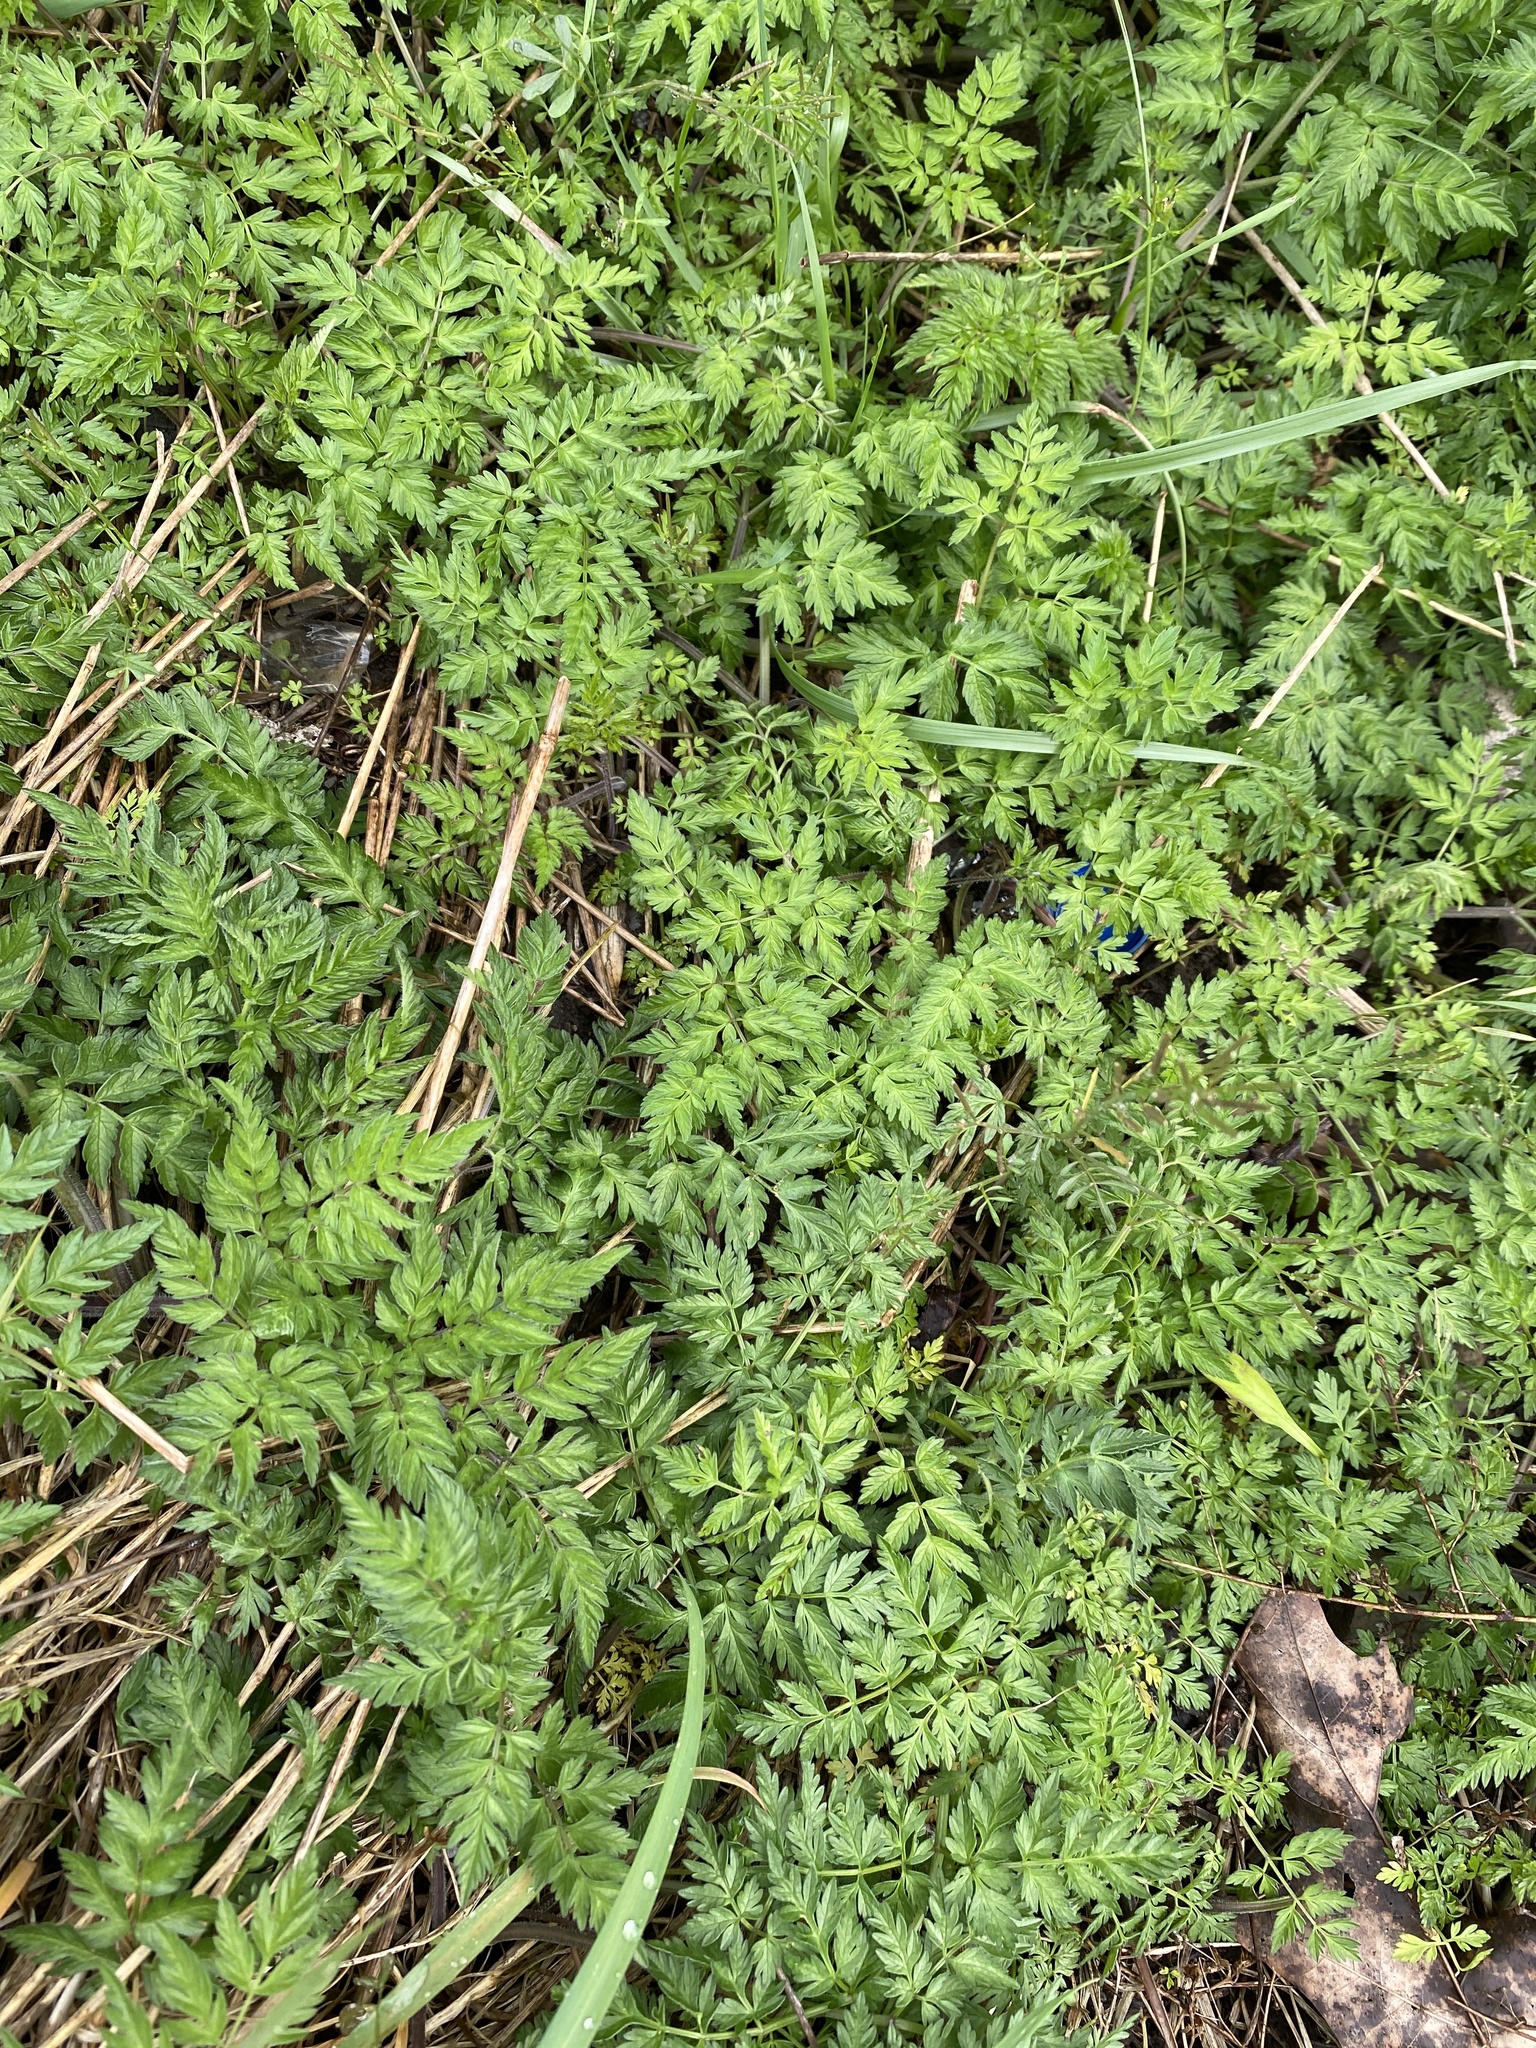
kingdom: Plantae
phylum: Tracheophyta
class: Magnoliopsida
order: Apiales
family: Apiaceae
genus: Anthriscus
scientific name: Anthriscus sylvestris
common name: Cow parsley
